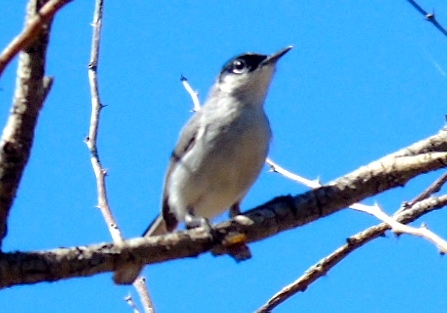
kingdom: Animalia
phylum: Chordata
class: Aves
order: Passeriformes
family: Polioptilidae
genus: Polioptila
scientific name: Polioptila nigriceps
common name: Black-capped gnatcatcher
